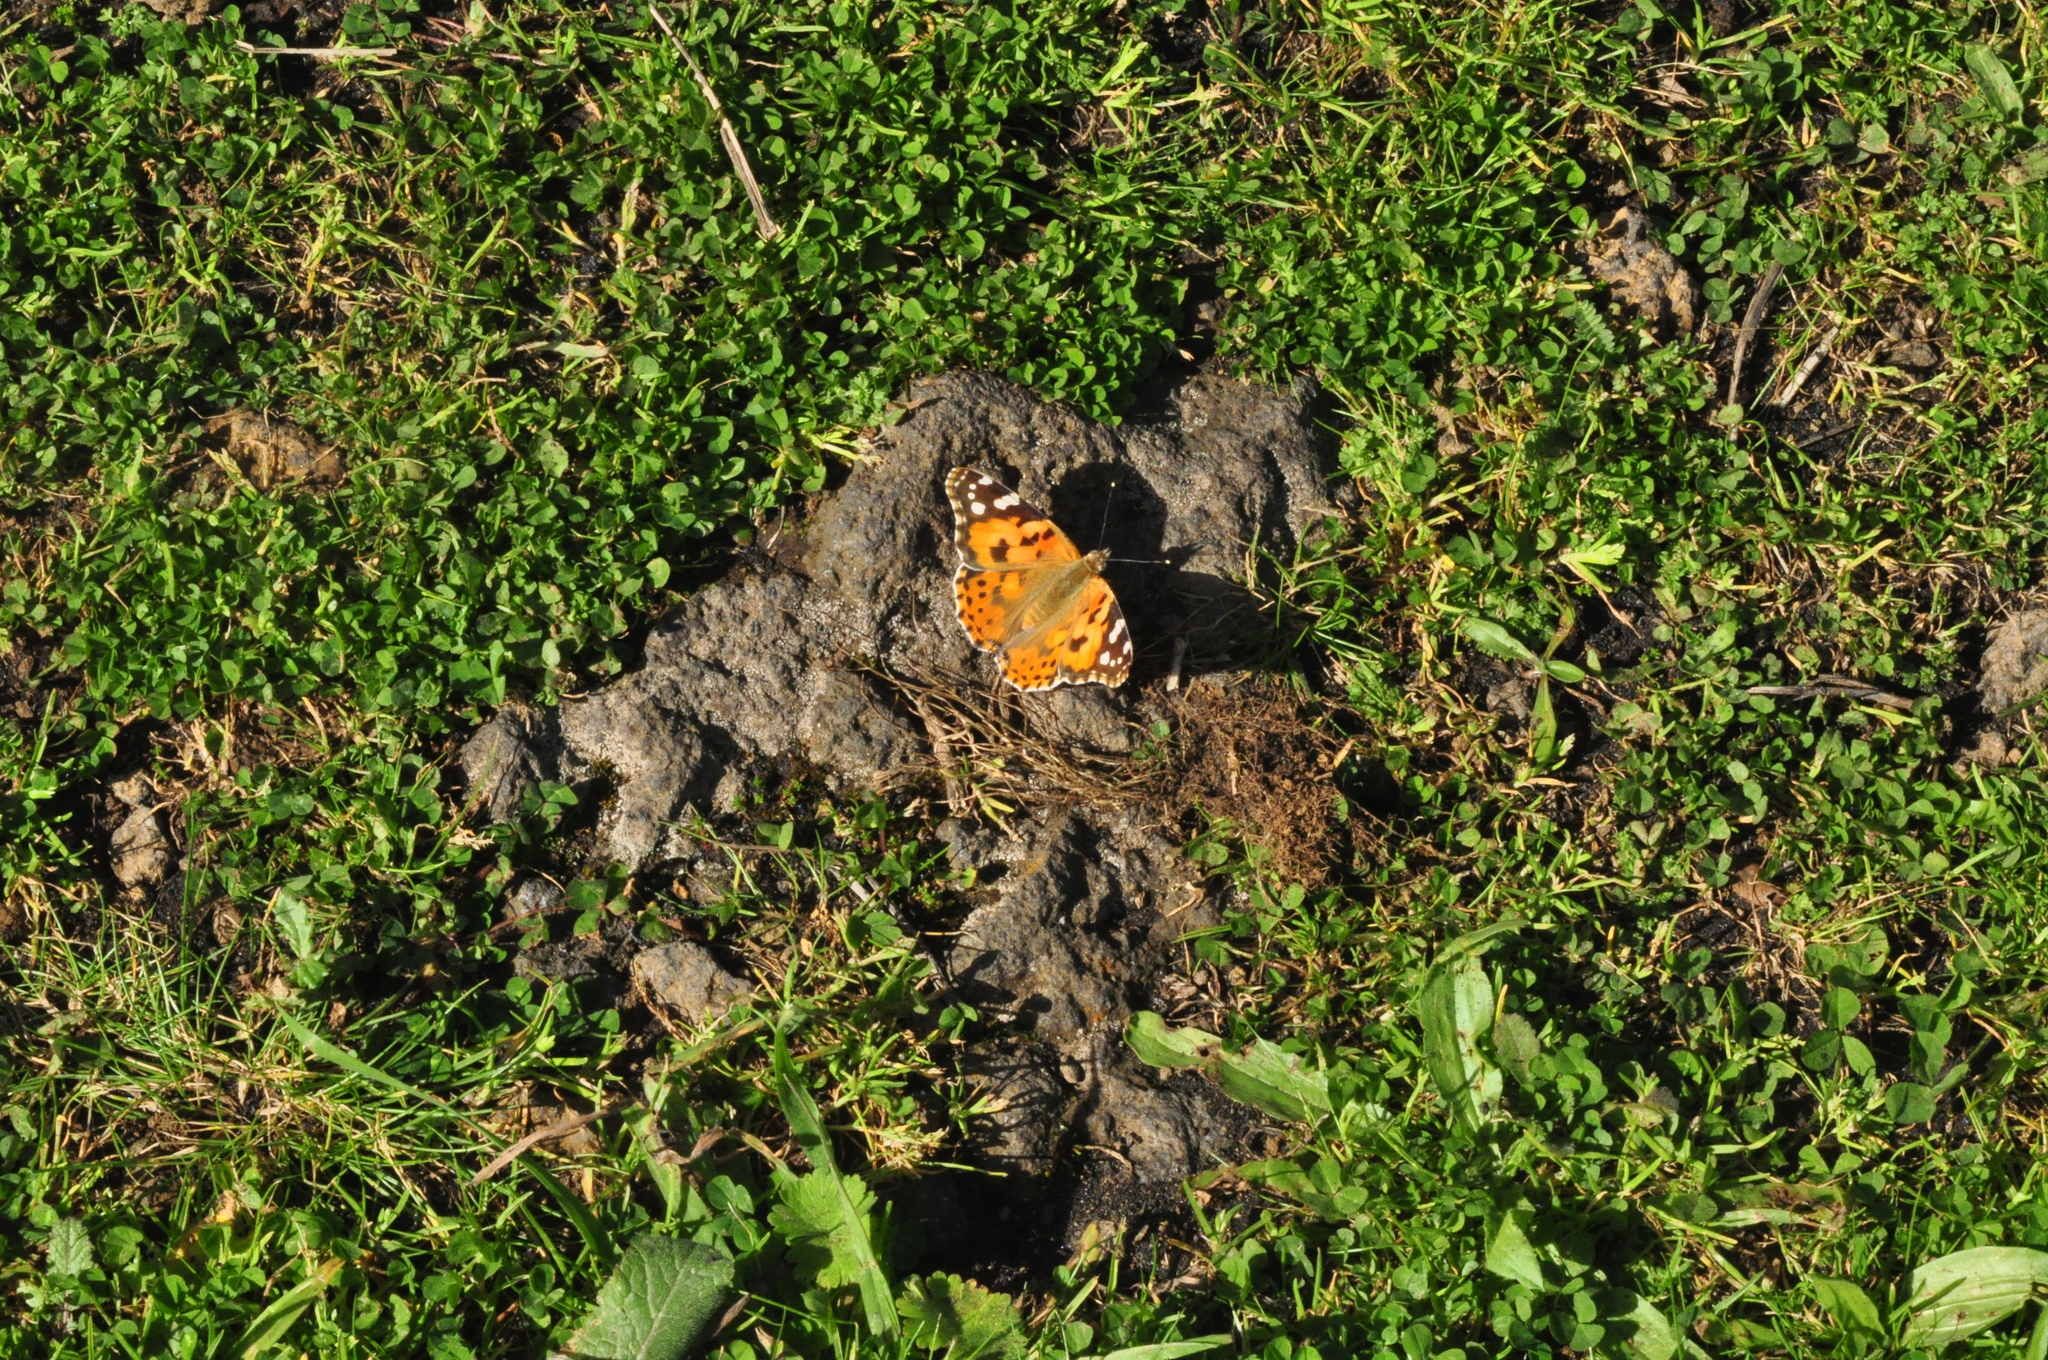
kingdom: Animalia
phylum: Arthropoda
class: Insecta
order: Lepidoptera
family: Nymphalidae
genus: Vanessa
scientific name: Vanessa cardui
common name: Painted lady
